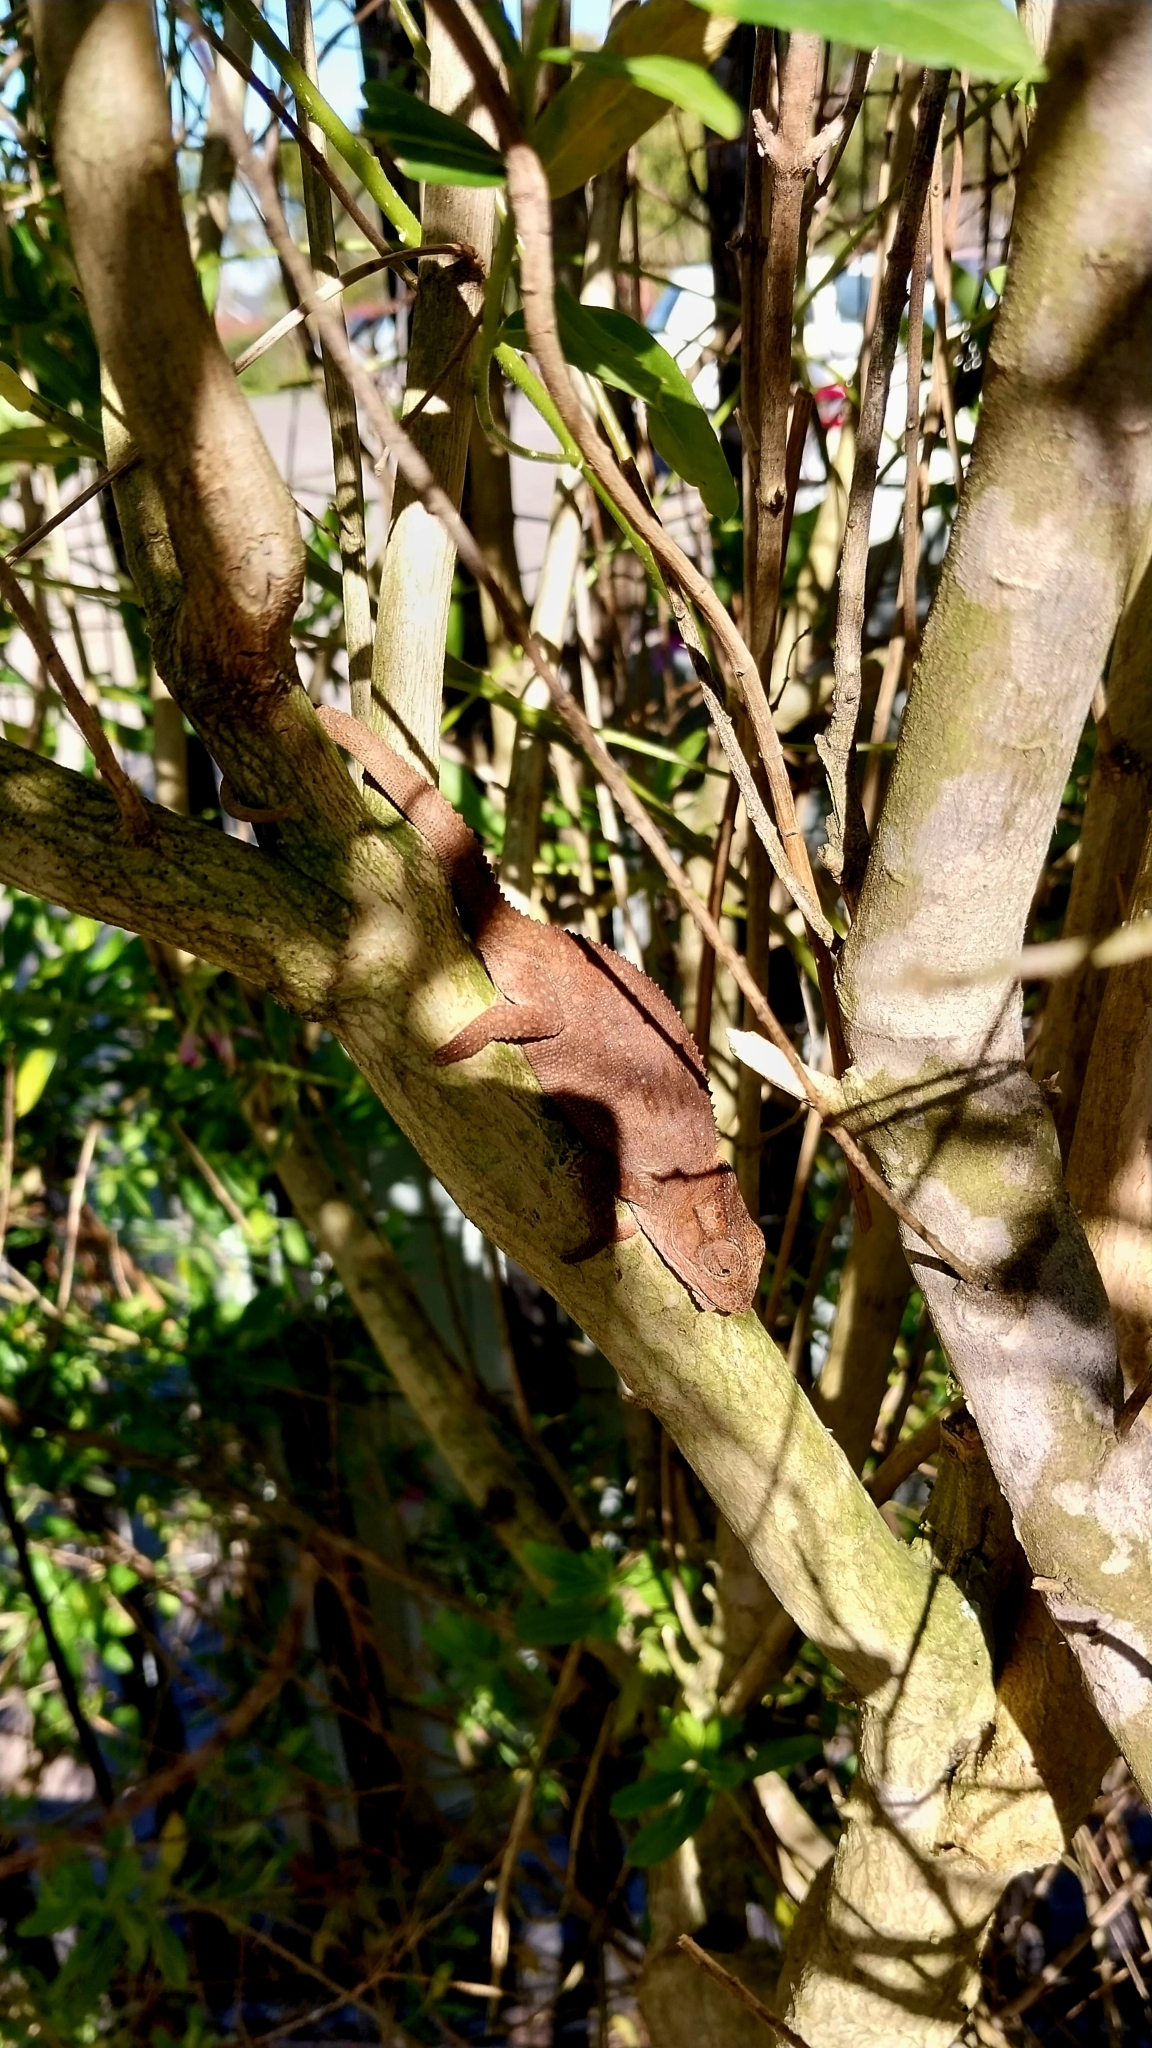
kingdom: Animalia
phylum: Chordata
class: Squamata
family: Chamaeleonidae
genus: Bradypodion
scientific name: Bradypodion damaranum
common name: Knysna dwarf chameleon
